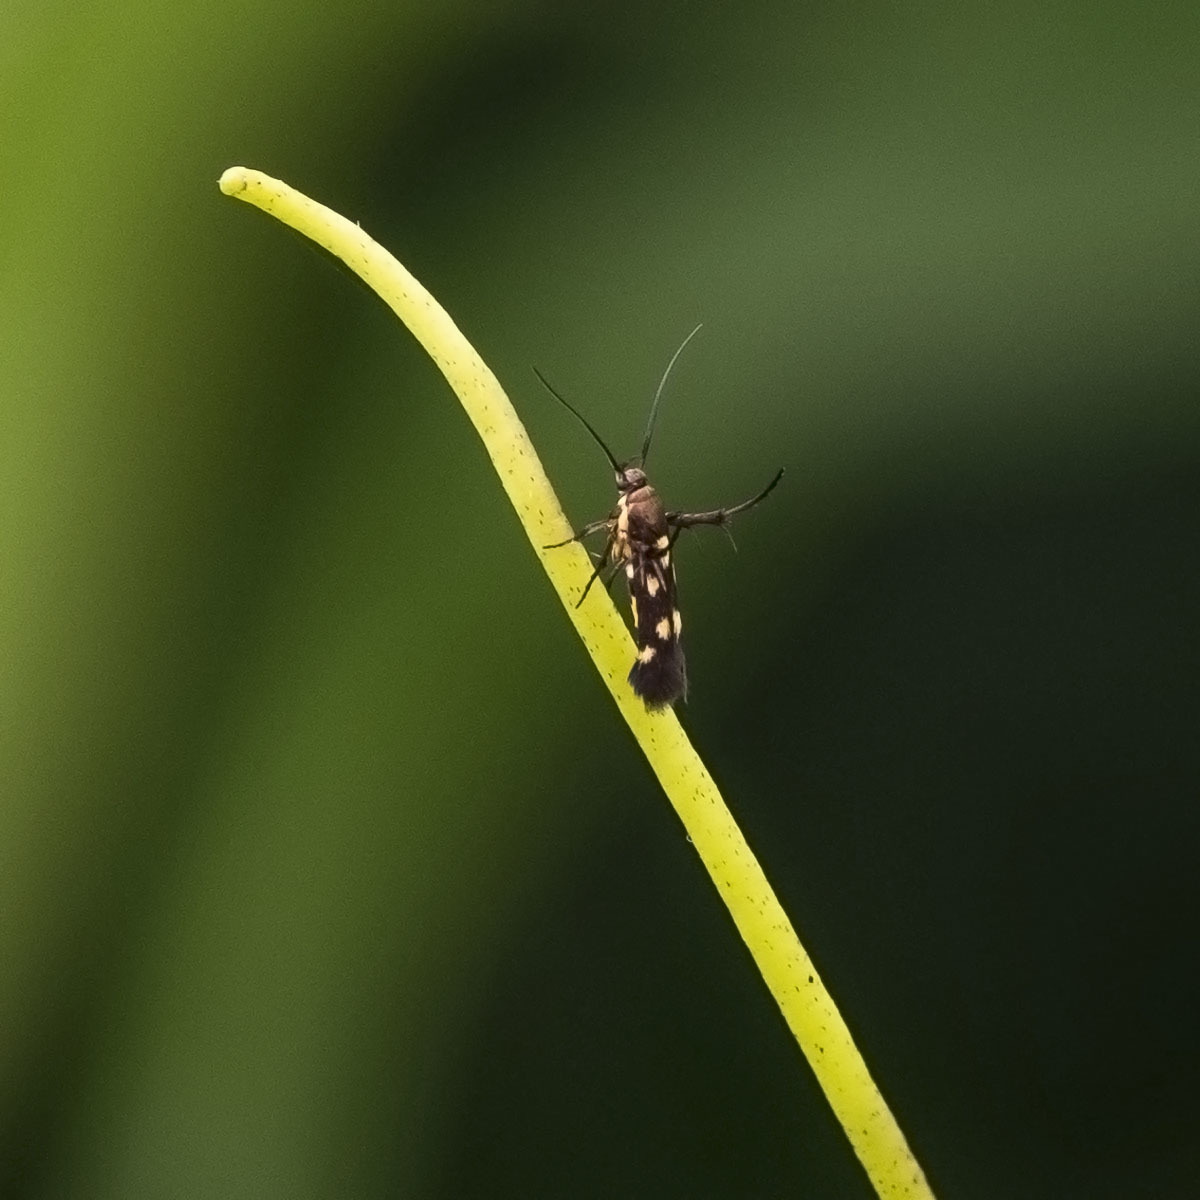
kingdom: Animalia
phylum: Arthropoda
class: Insecta
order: Lepidoptera
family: Scythrididae
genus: Eretmocera
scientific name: Eretmocera impactella
